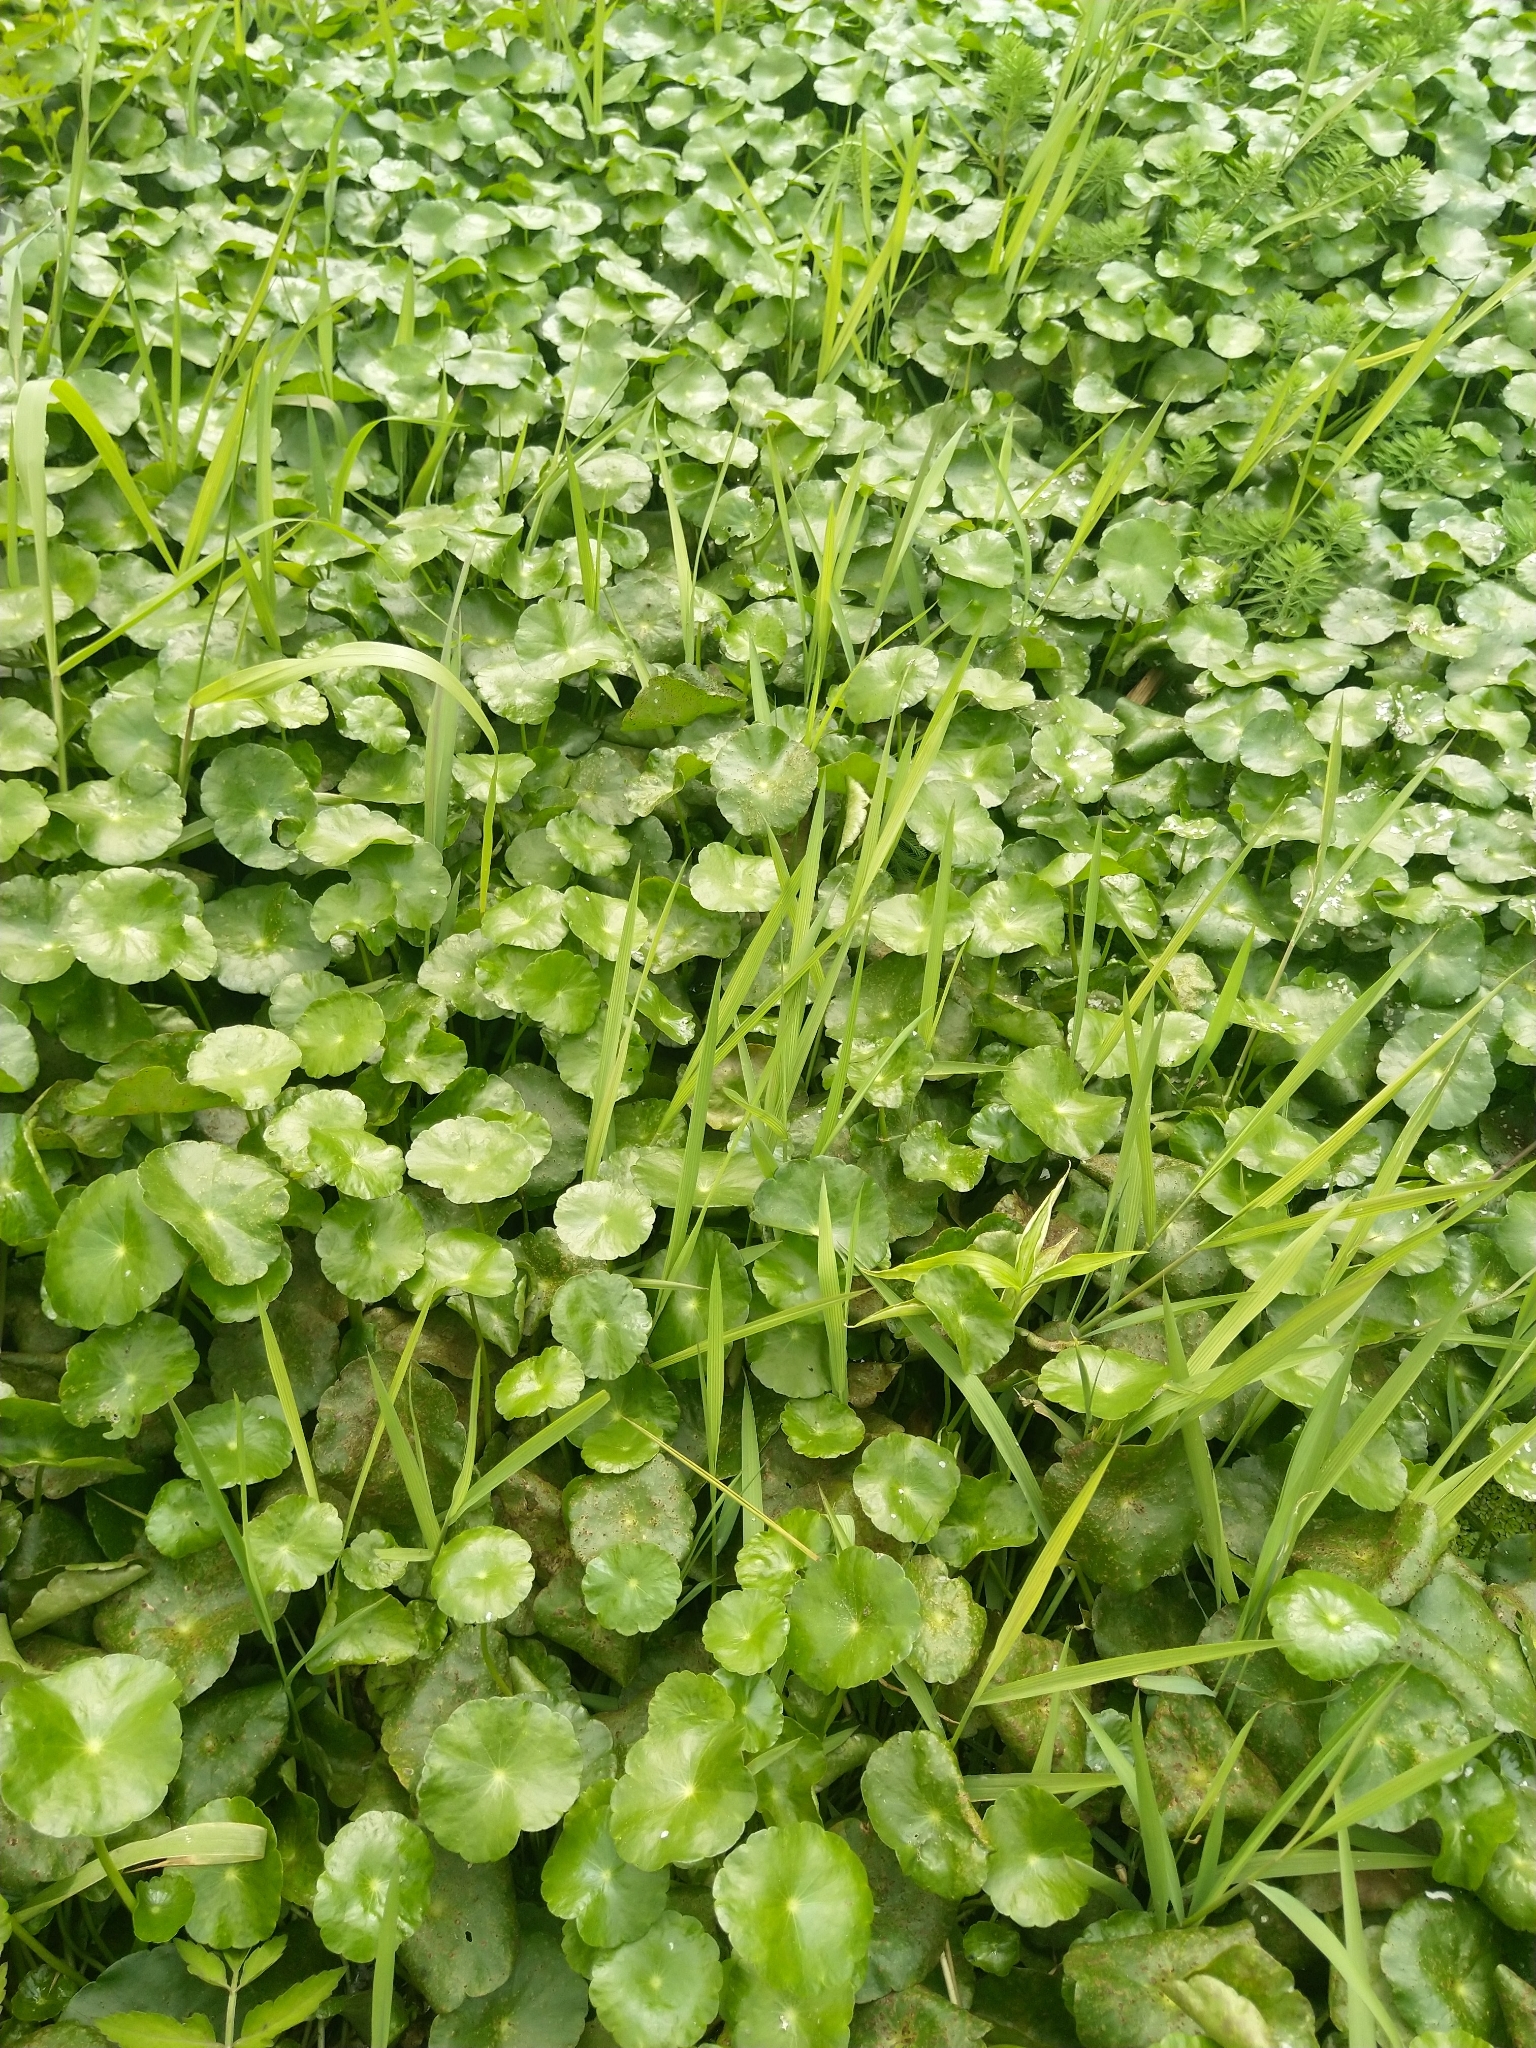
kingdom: Plantae
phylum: Tracheophyta
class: Magnoliopsida
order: Apiales
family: Araliaceae
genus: Hydrocotyle
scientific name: Hydrocotyle verticillata
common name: Whorled marshpennywort
